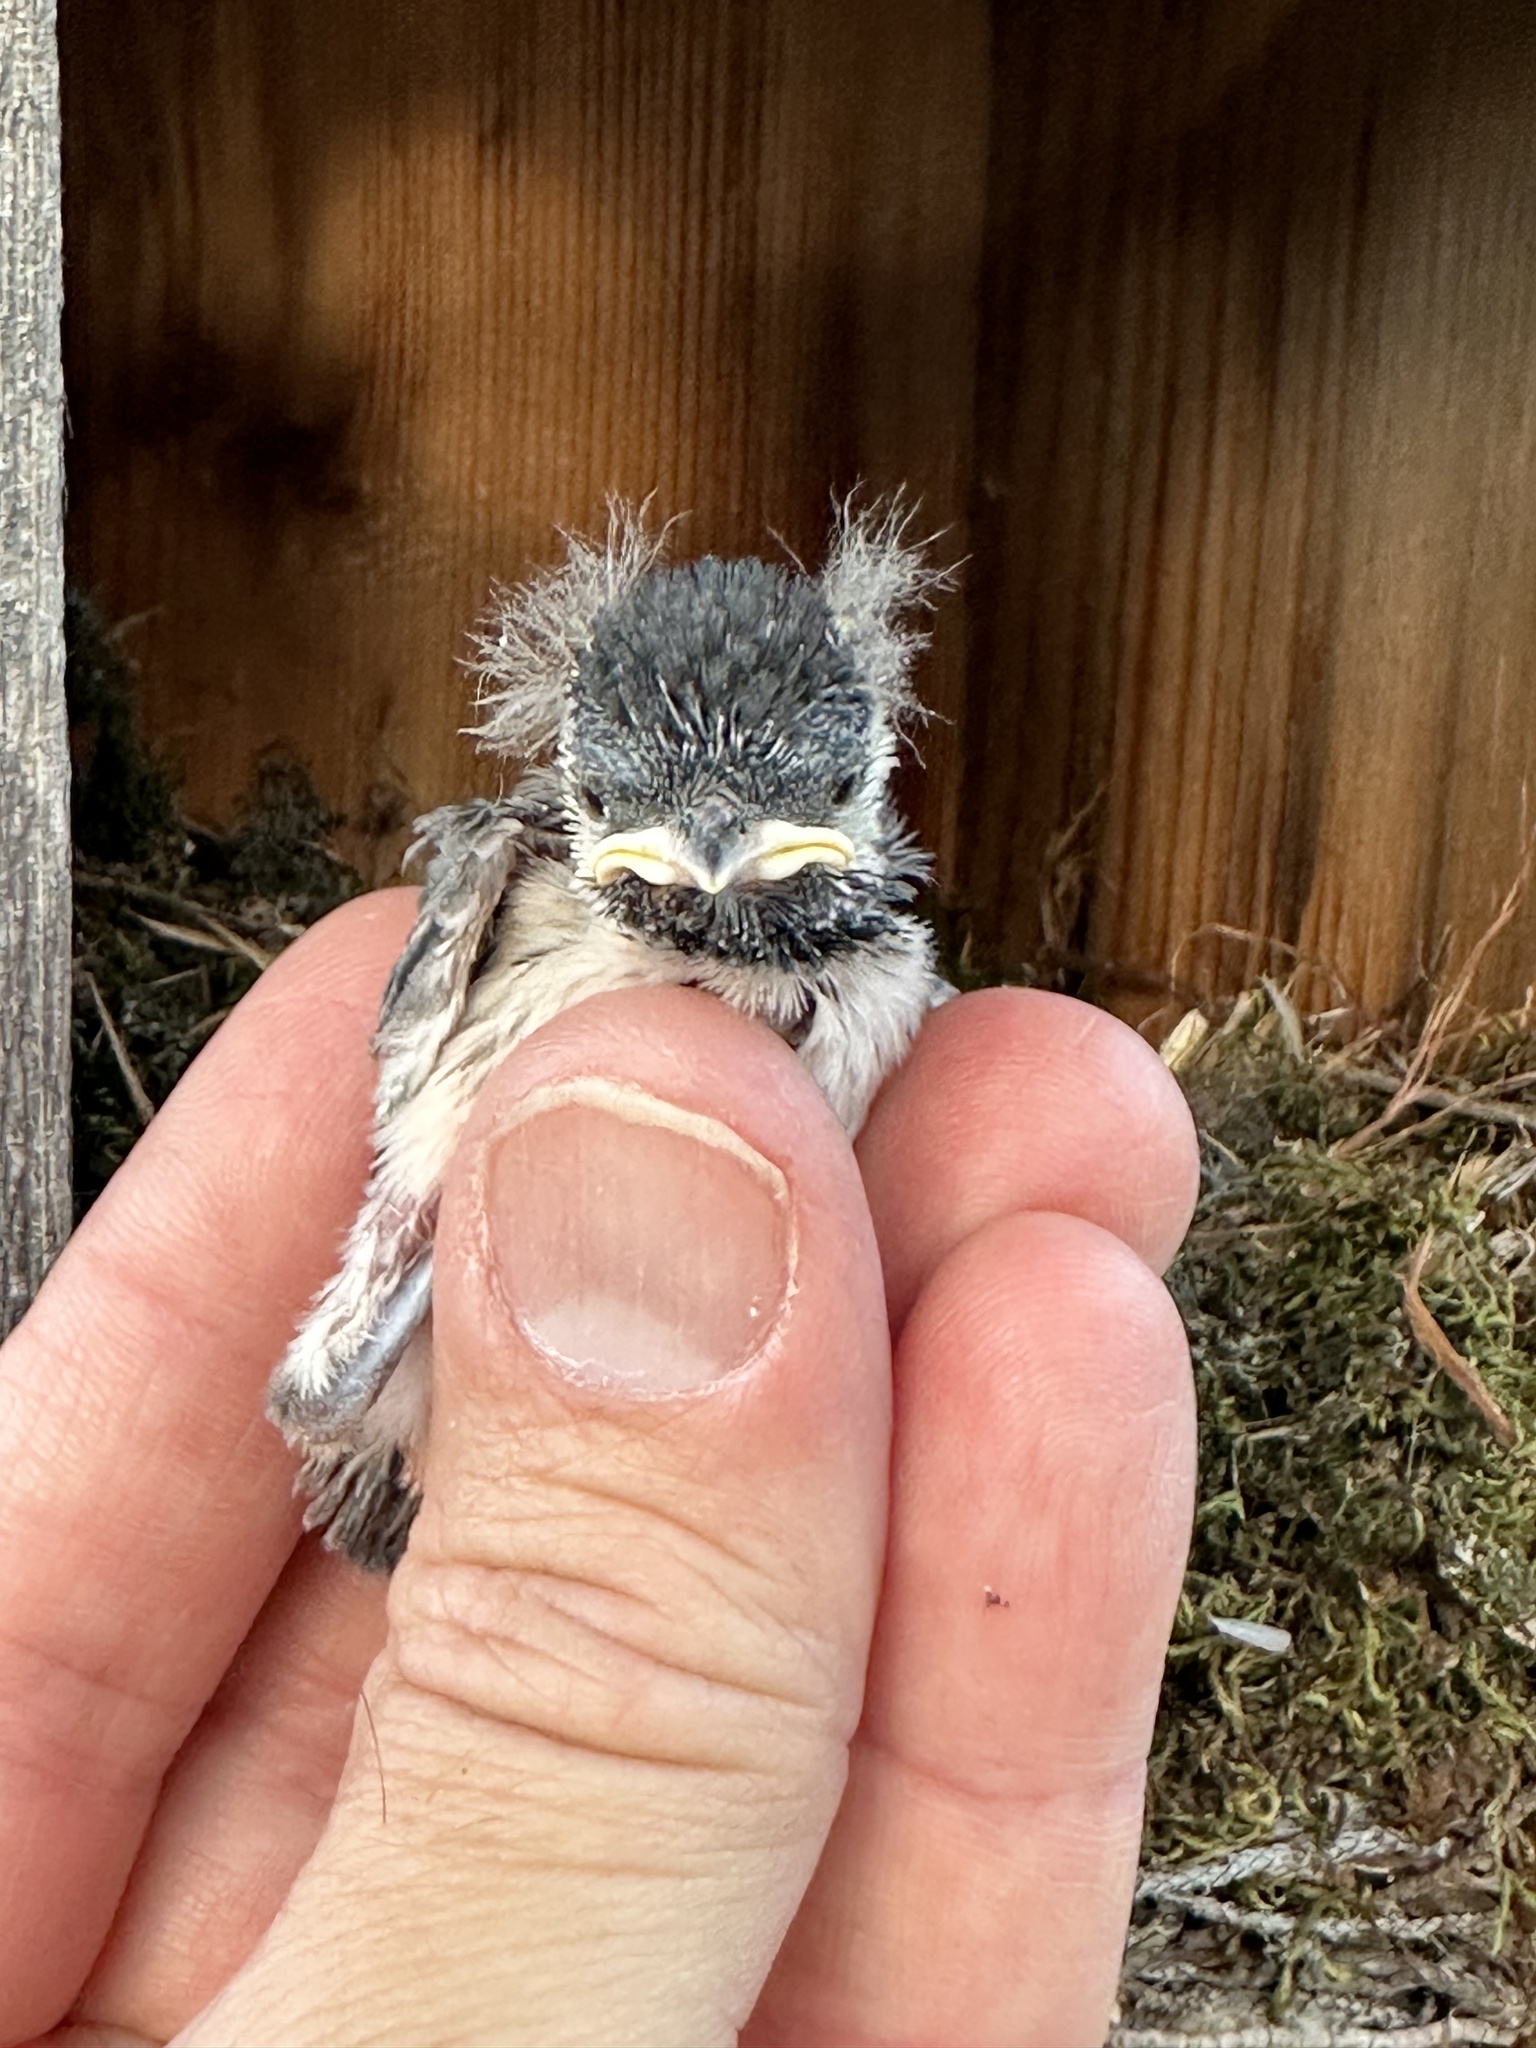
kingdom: Animalia
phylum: Chordata
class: Aves
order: Passeriformes
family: Paridae
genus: Poecile
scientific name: Poecile carolinensis
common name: Carolina chickadee
